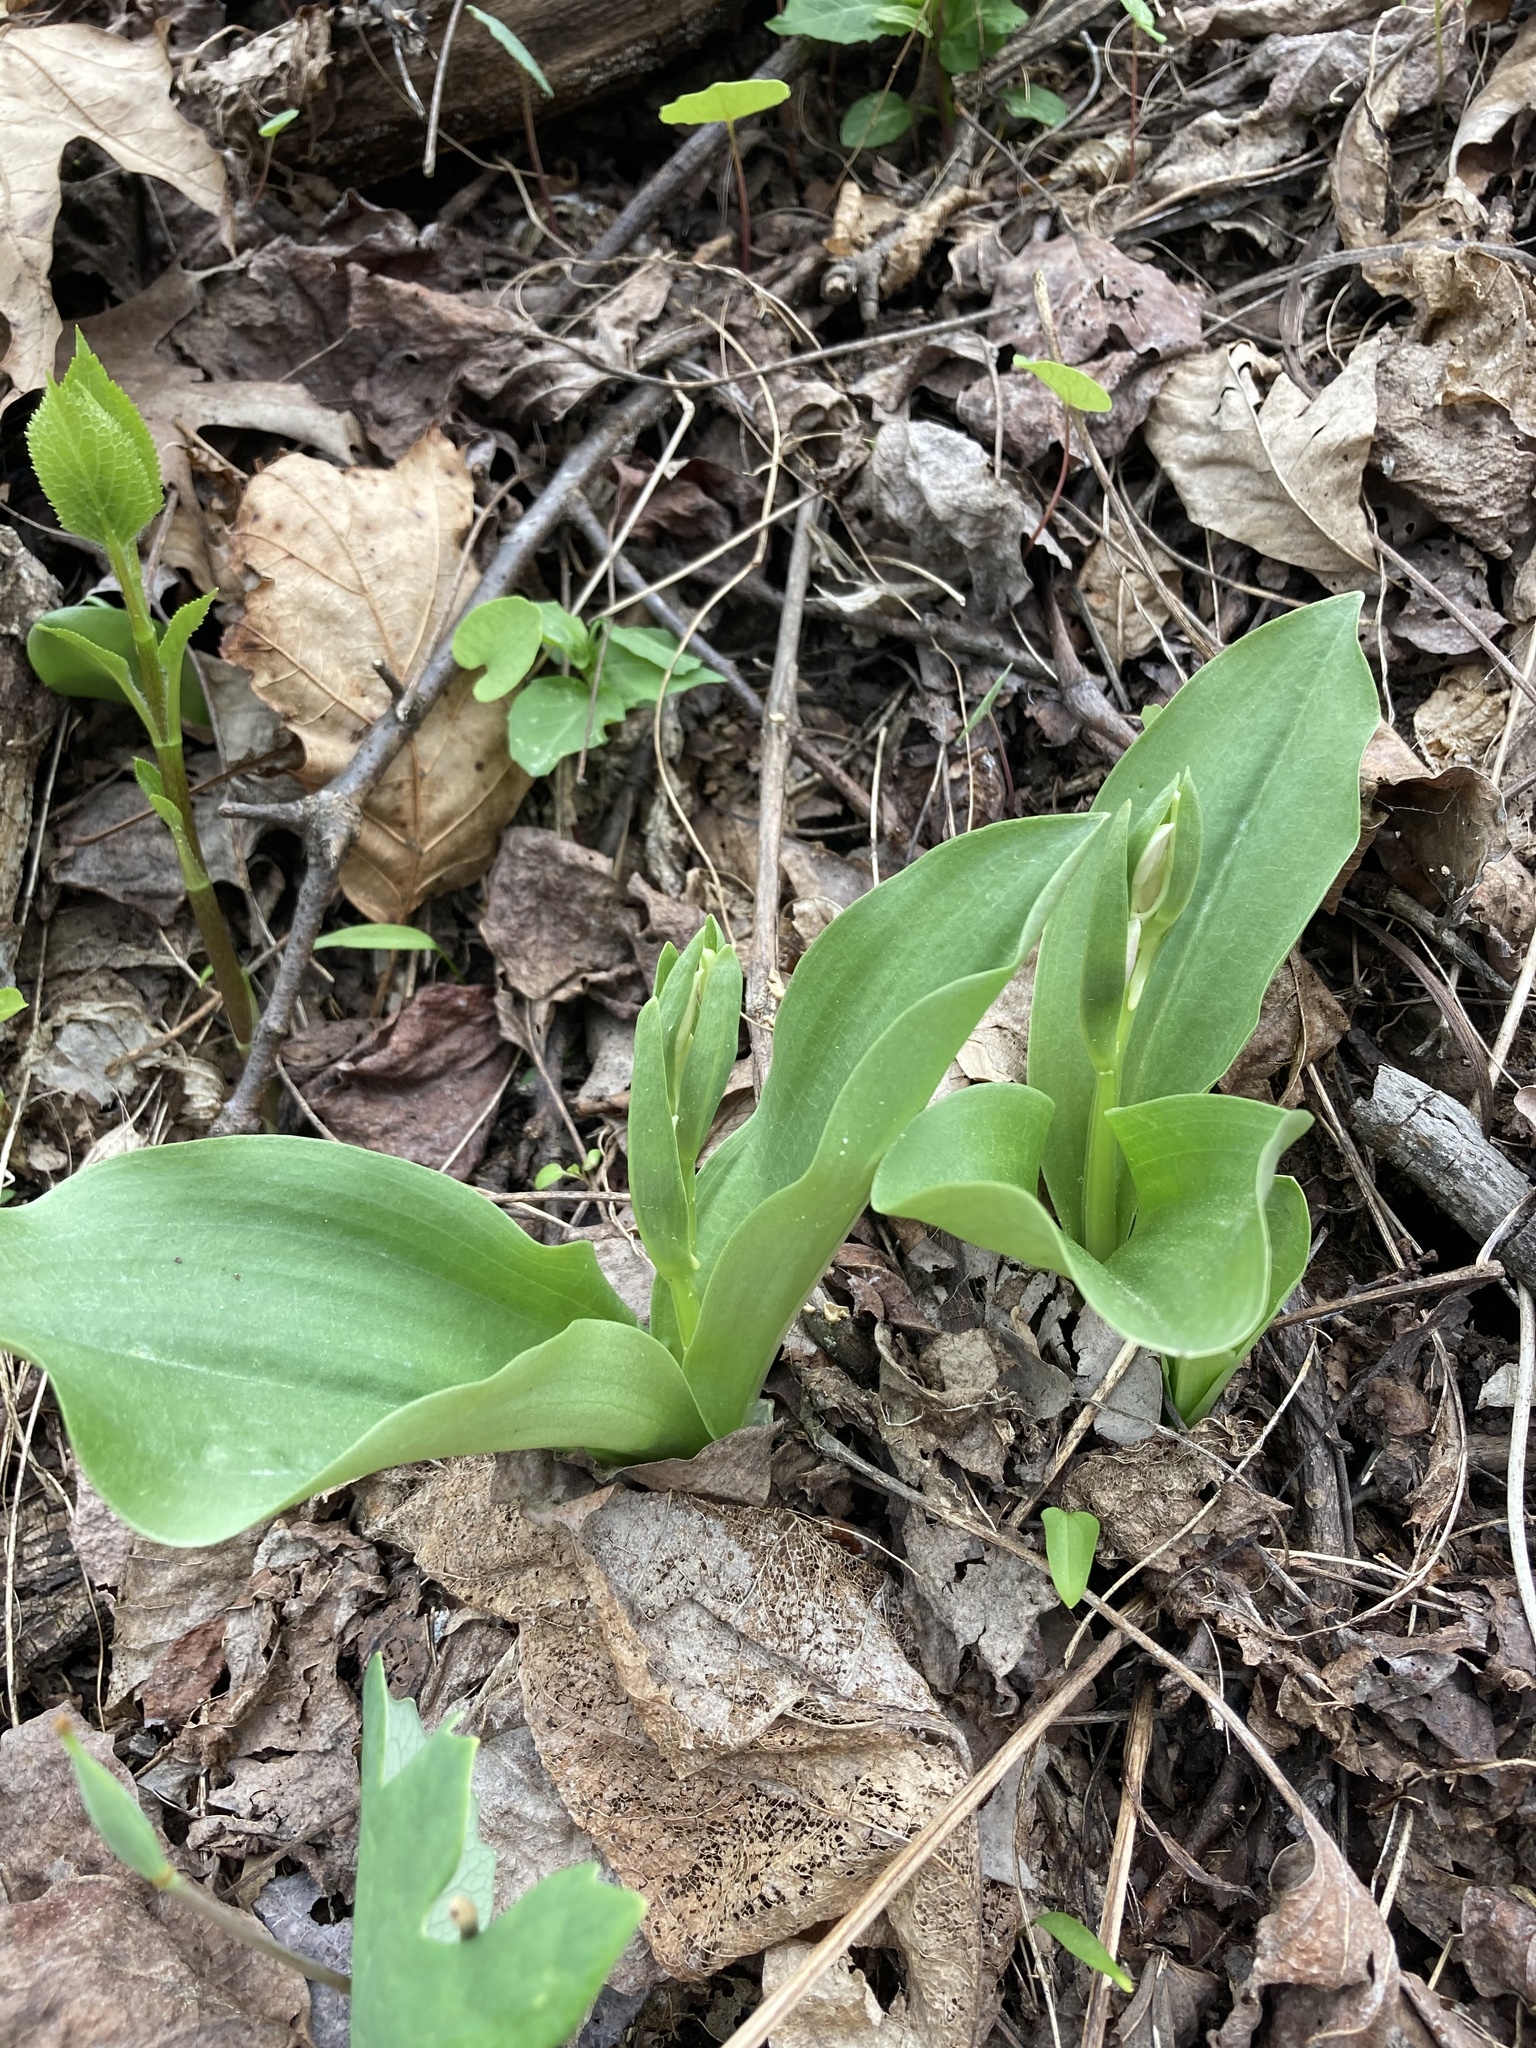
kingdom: Plantae
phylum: Tracheophyta
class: Liliopsida
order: Asparagales
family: Orchidaceae
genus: Galearis
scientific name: Galearis spectabilis
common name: Purple-hooded orchis
